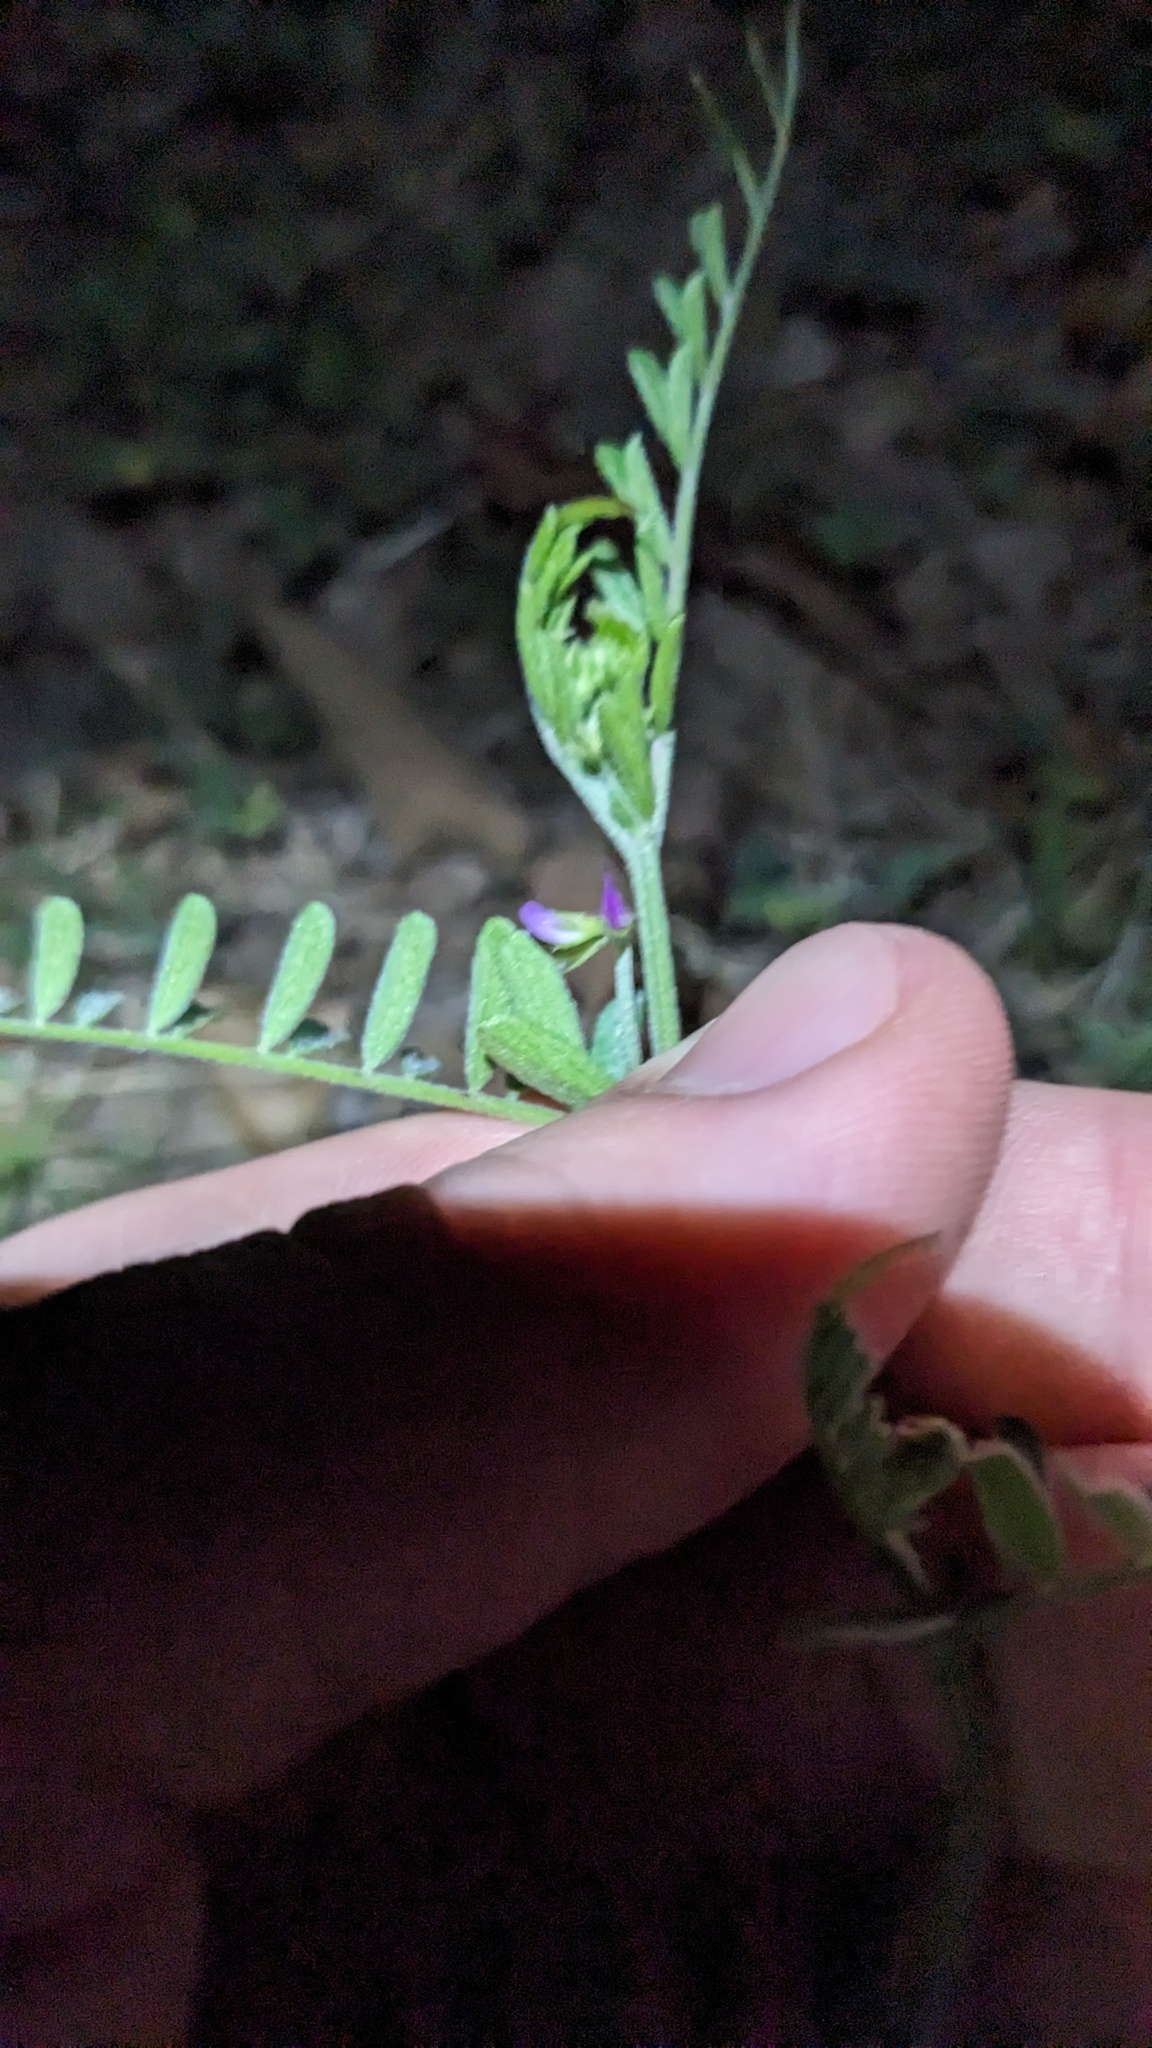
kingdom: Plantae
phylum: Tracheophyta
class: Magnoliopsida
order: Fabales
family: Fabaceae
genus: Vicia
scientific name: Vicia ludoviciana
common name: Louisiana vetch
